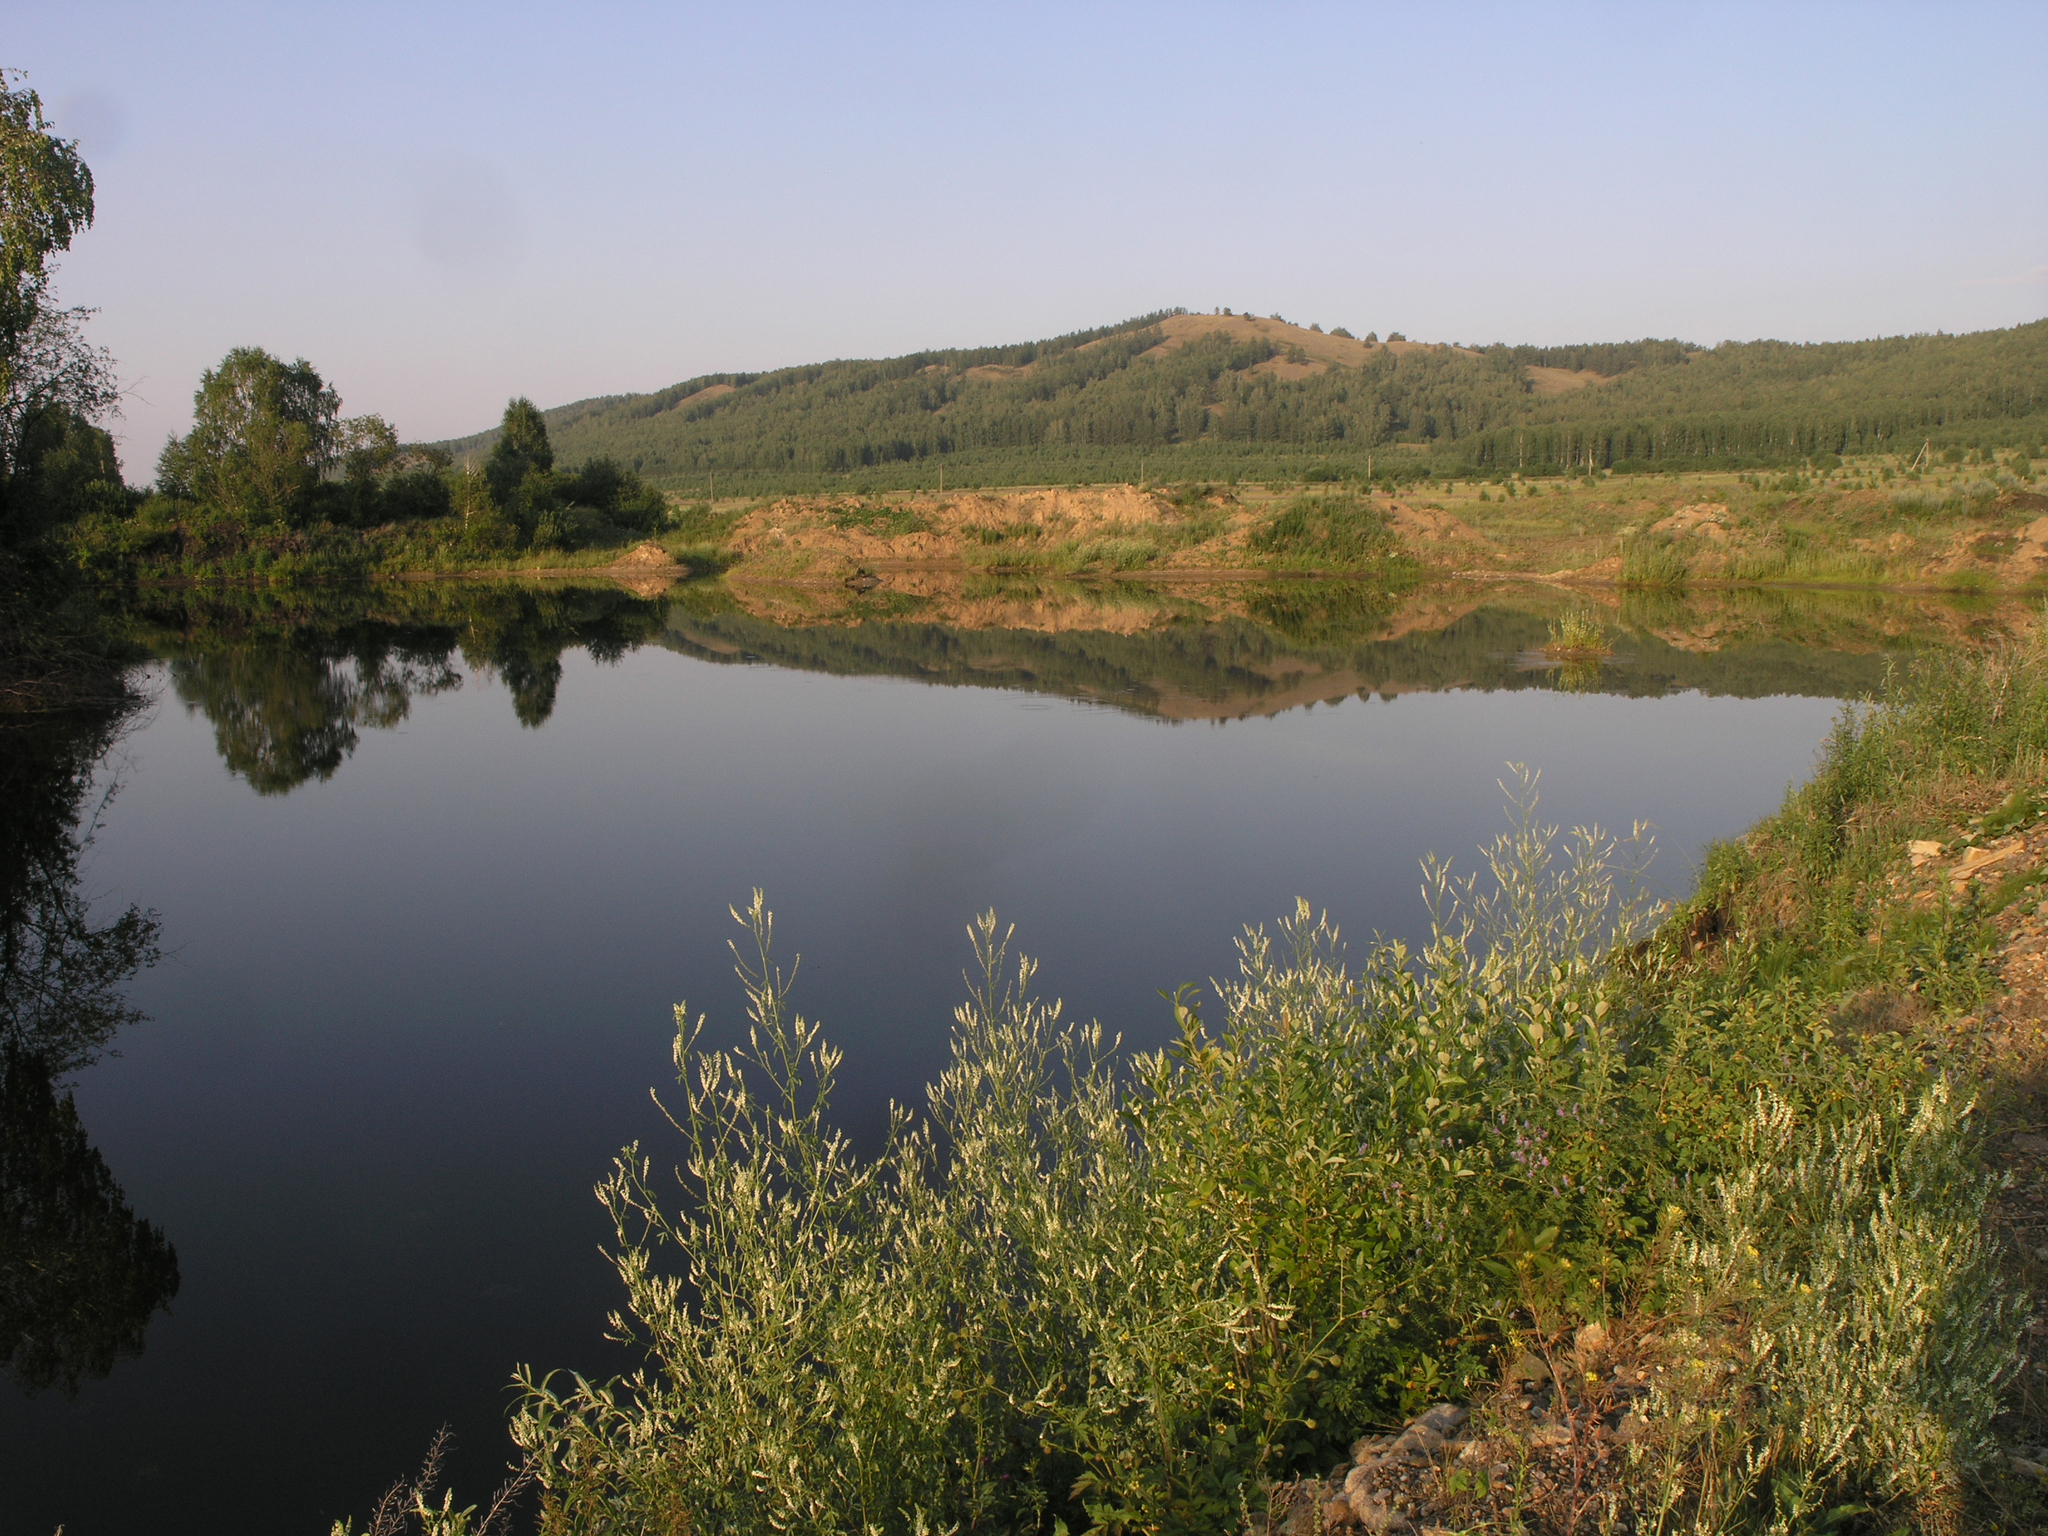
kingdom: Plantae
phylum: Tracheophyta
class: Magnoliopsida
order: Fabales
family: Fabaceae
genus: Melilotus
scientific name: Melilotus albus
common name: White melilot
